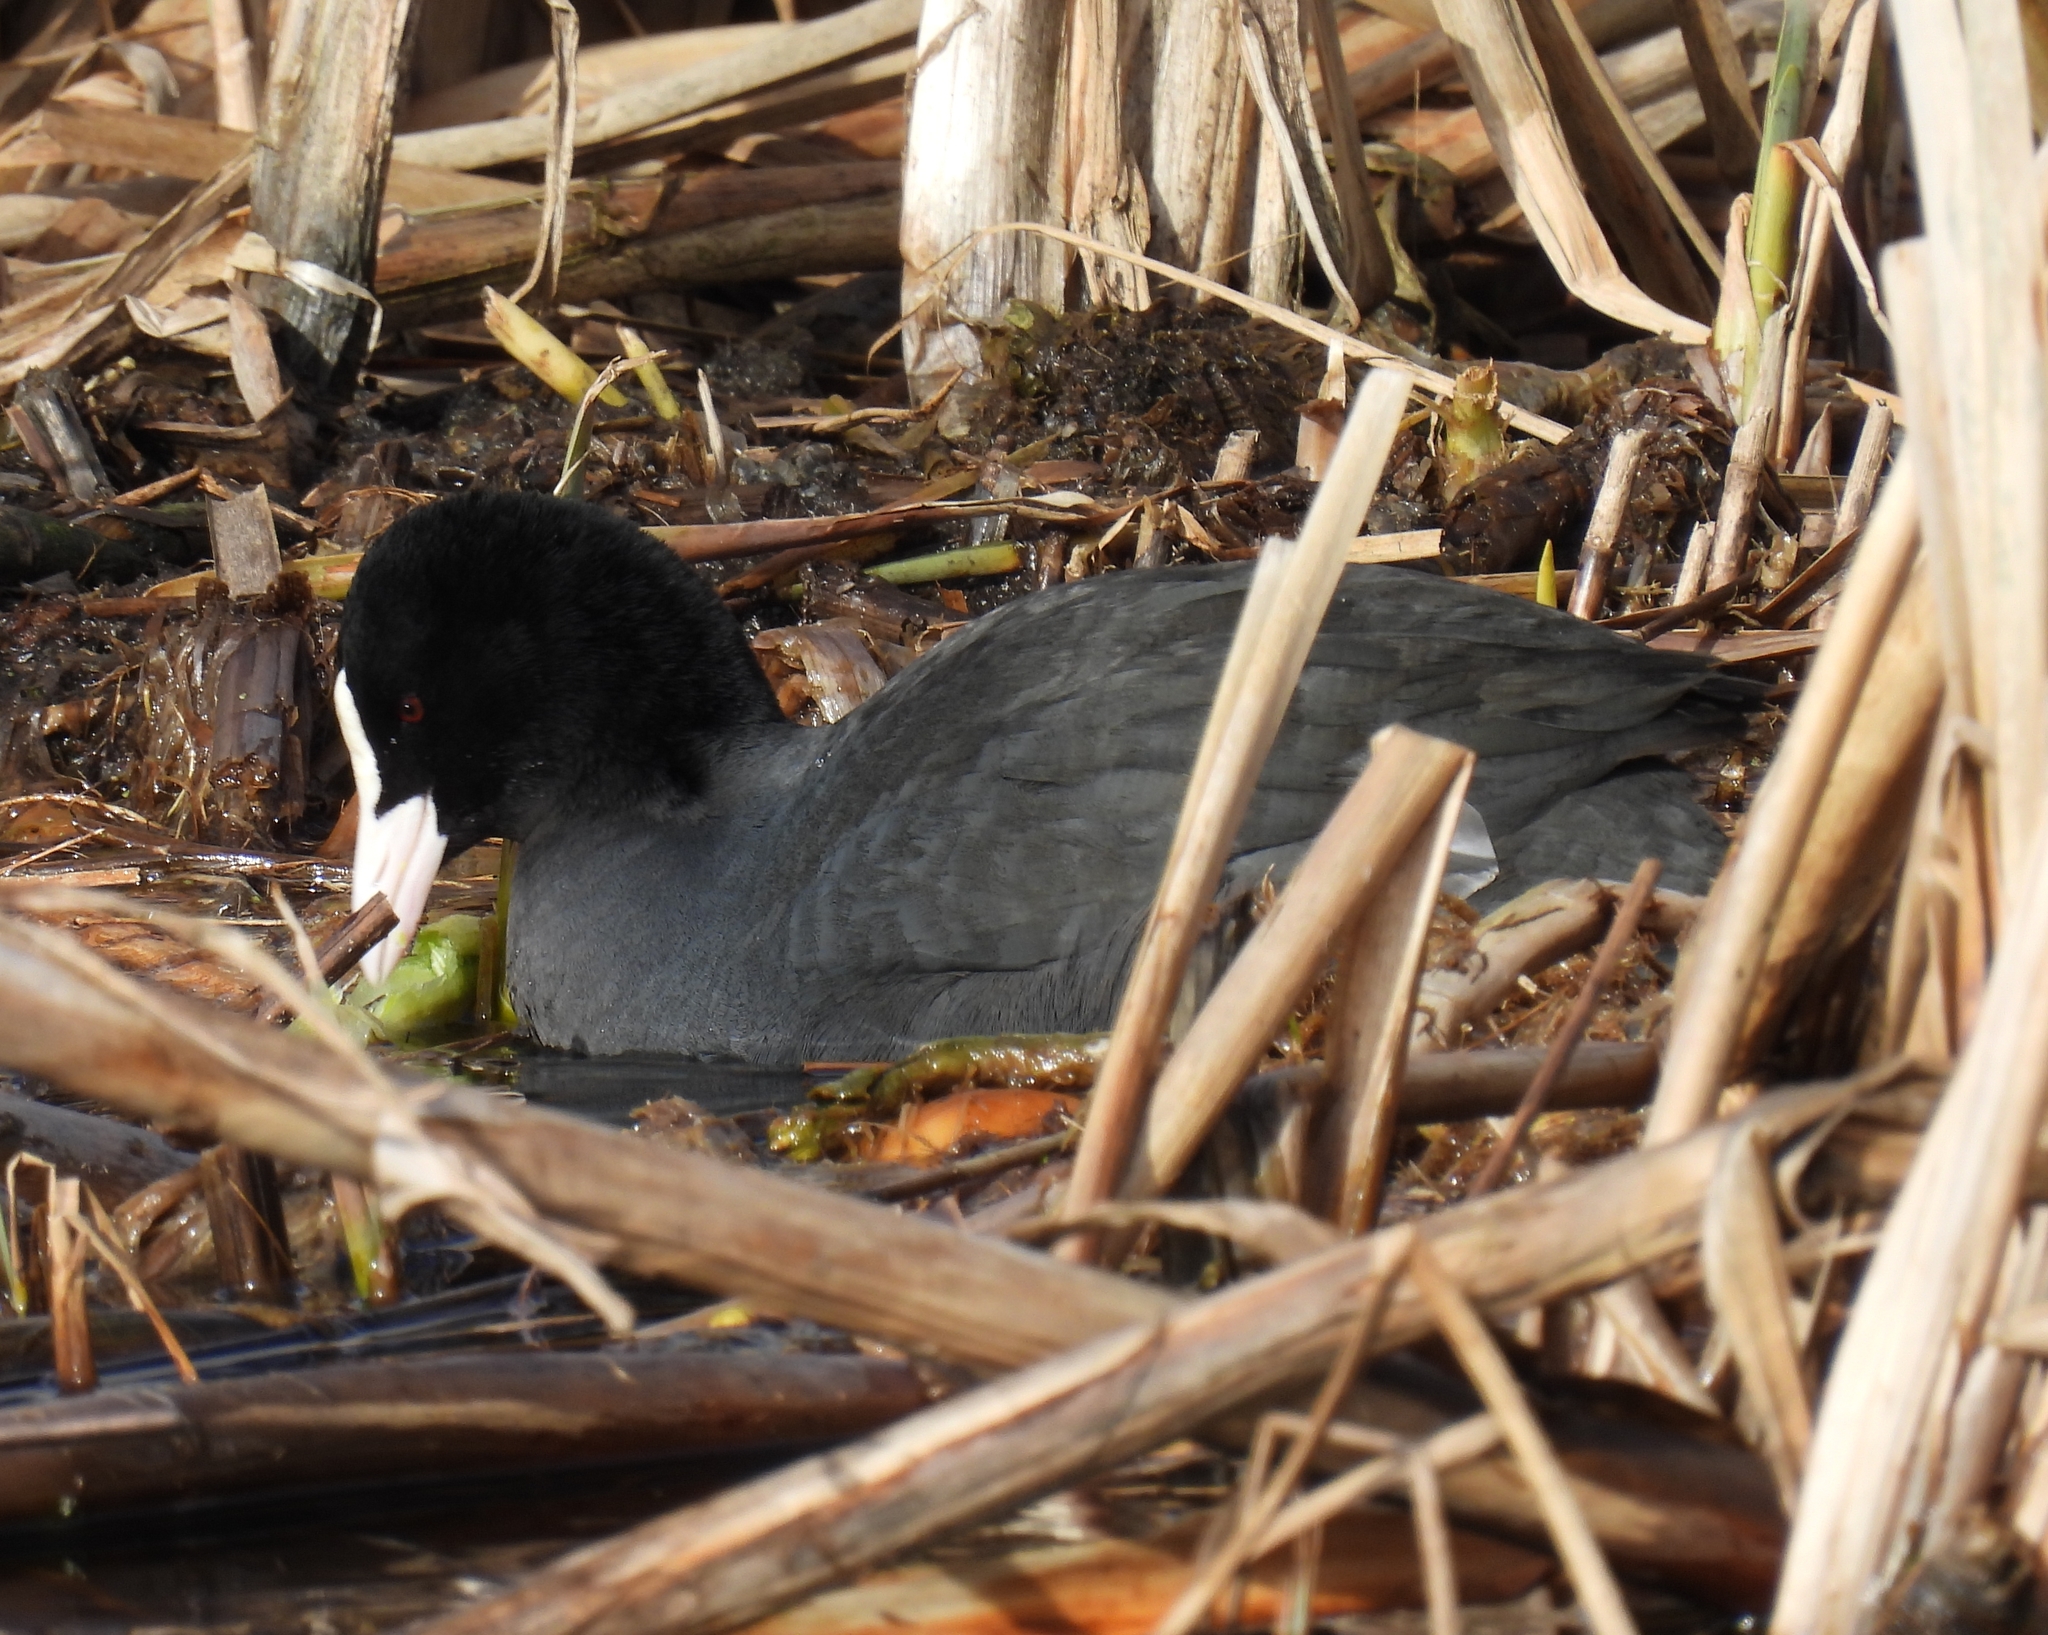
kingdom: Animalia
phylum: Chordata
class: Aves
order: Gruiformes
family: Rallidae
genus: Fulica
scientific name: Fulica atra
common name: Eurasian coot
